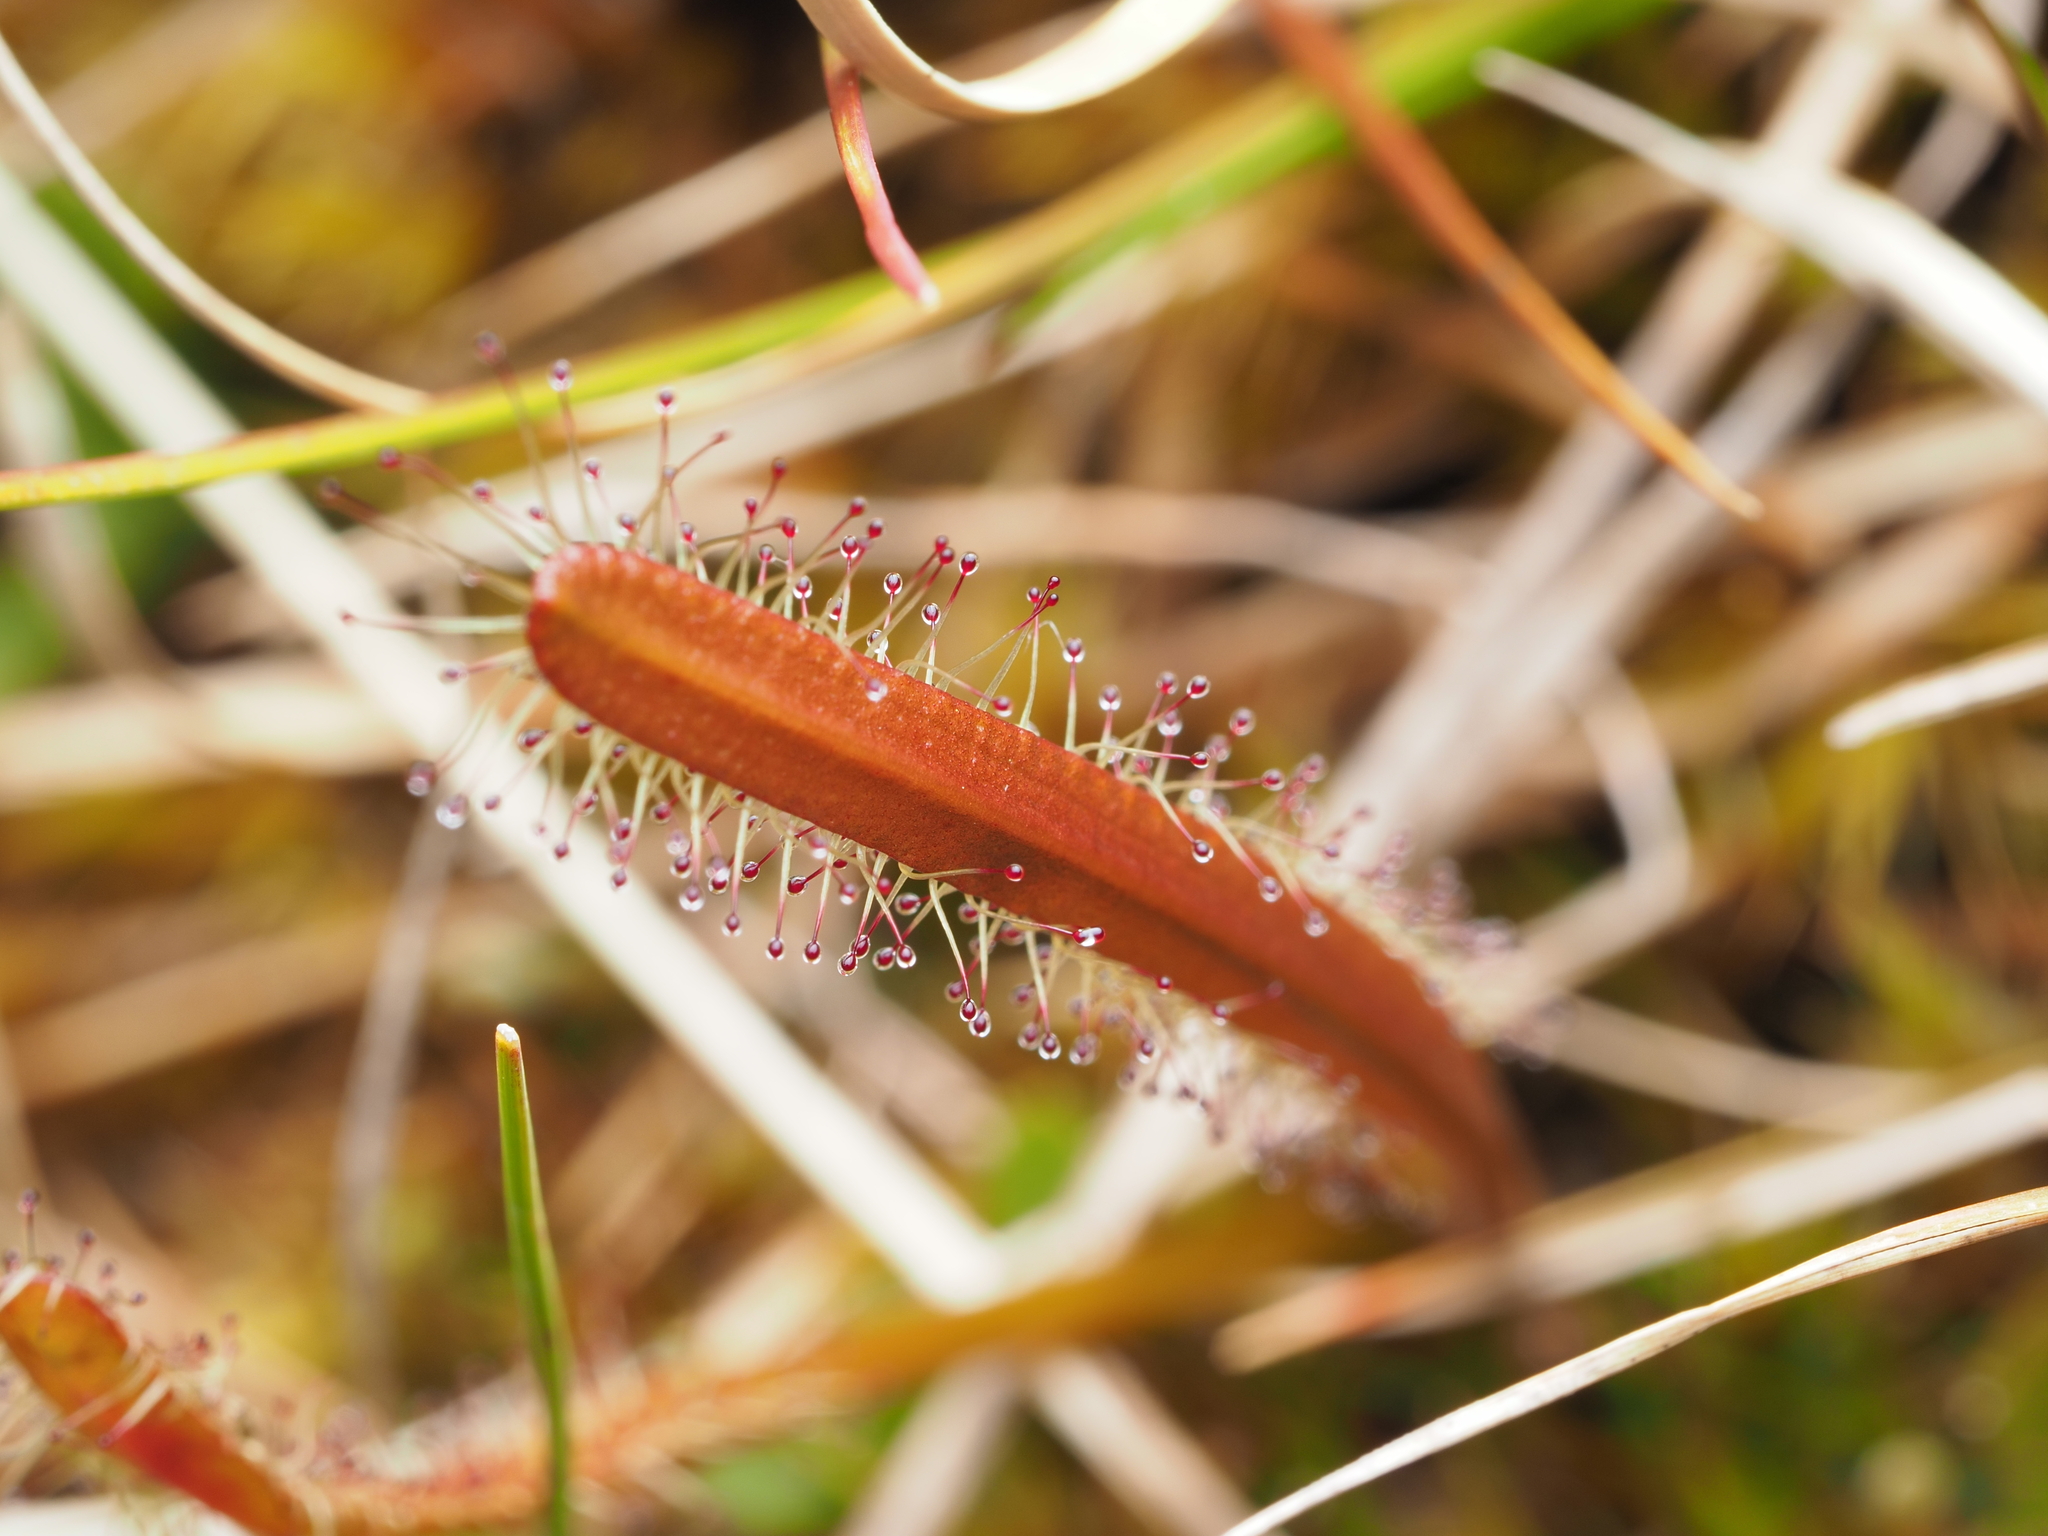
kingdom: Plantae
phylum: Tracheophyta
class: Magnoliopsida
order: Caryophyllales
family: Droseraceae
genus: Drosera
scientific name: Drosera arcturi
